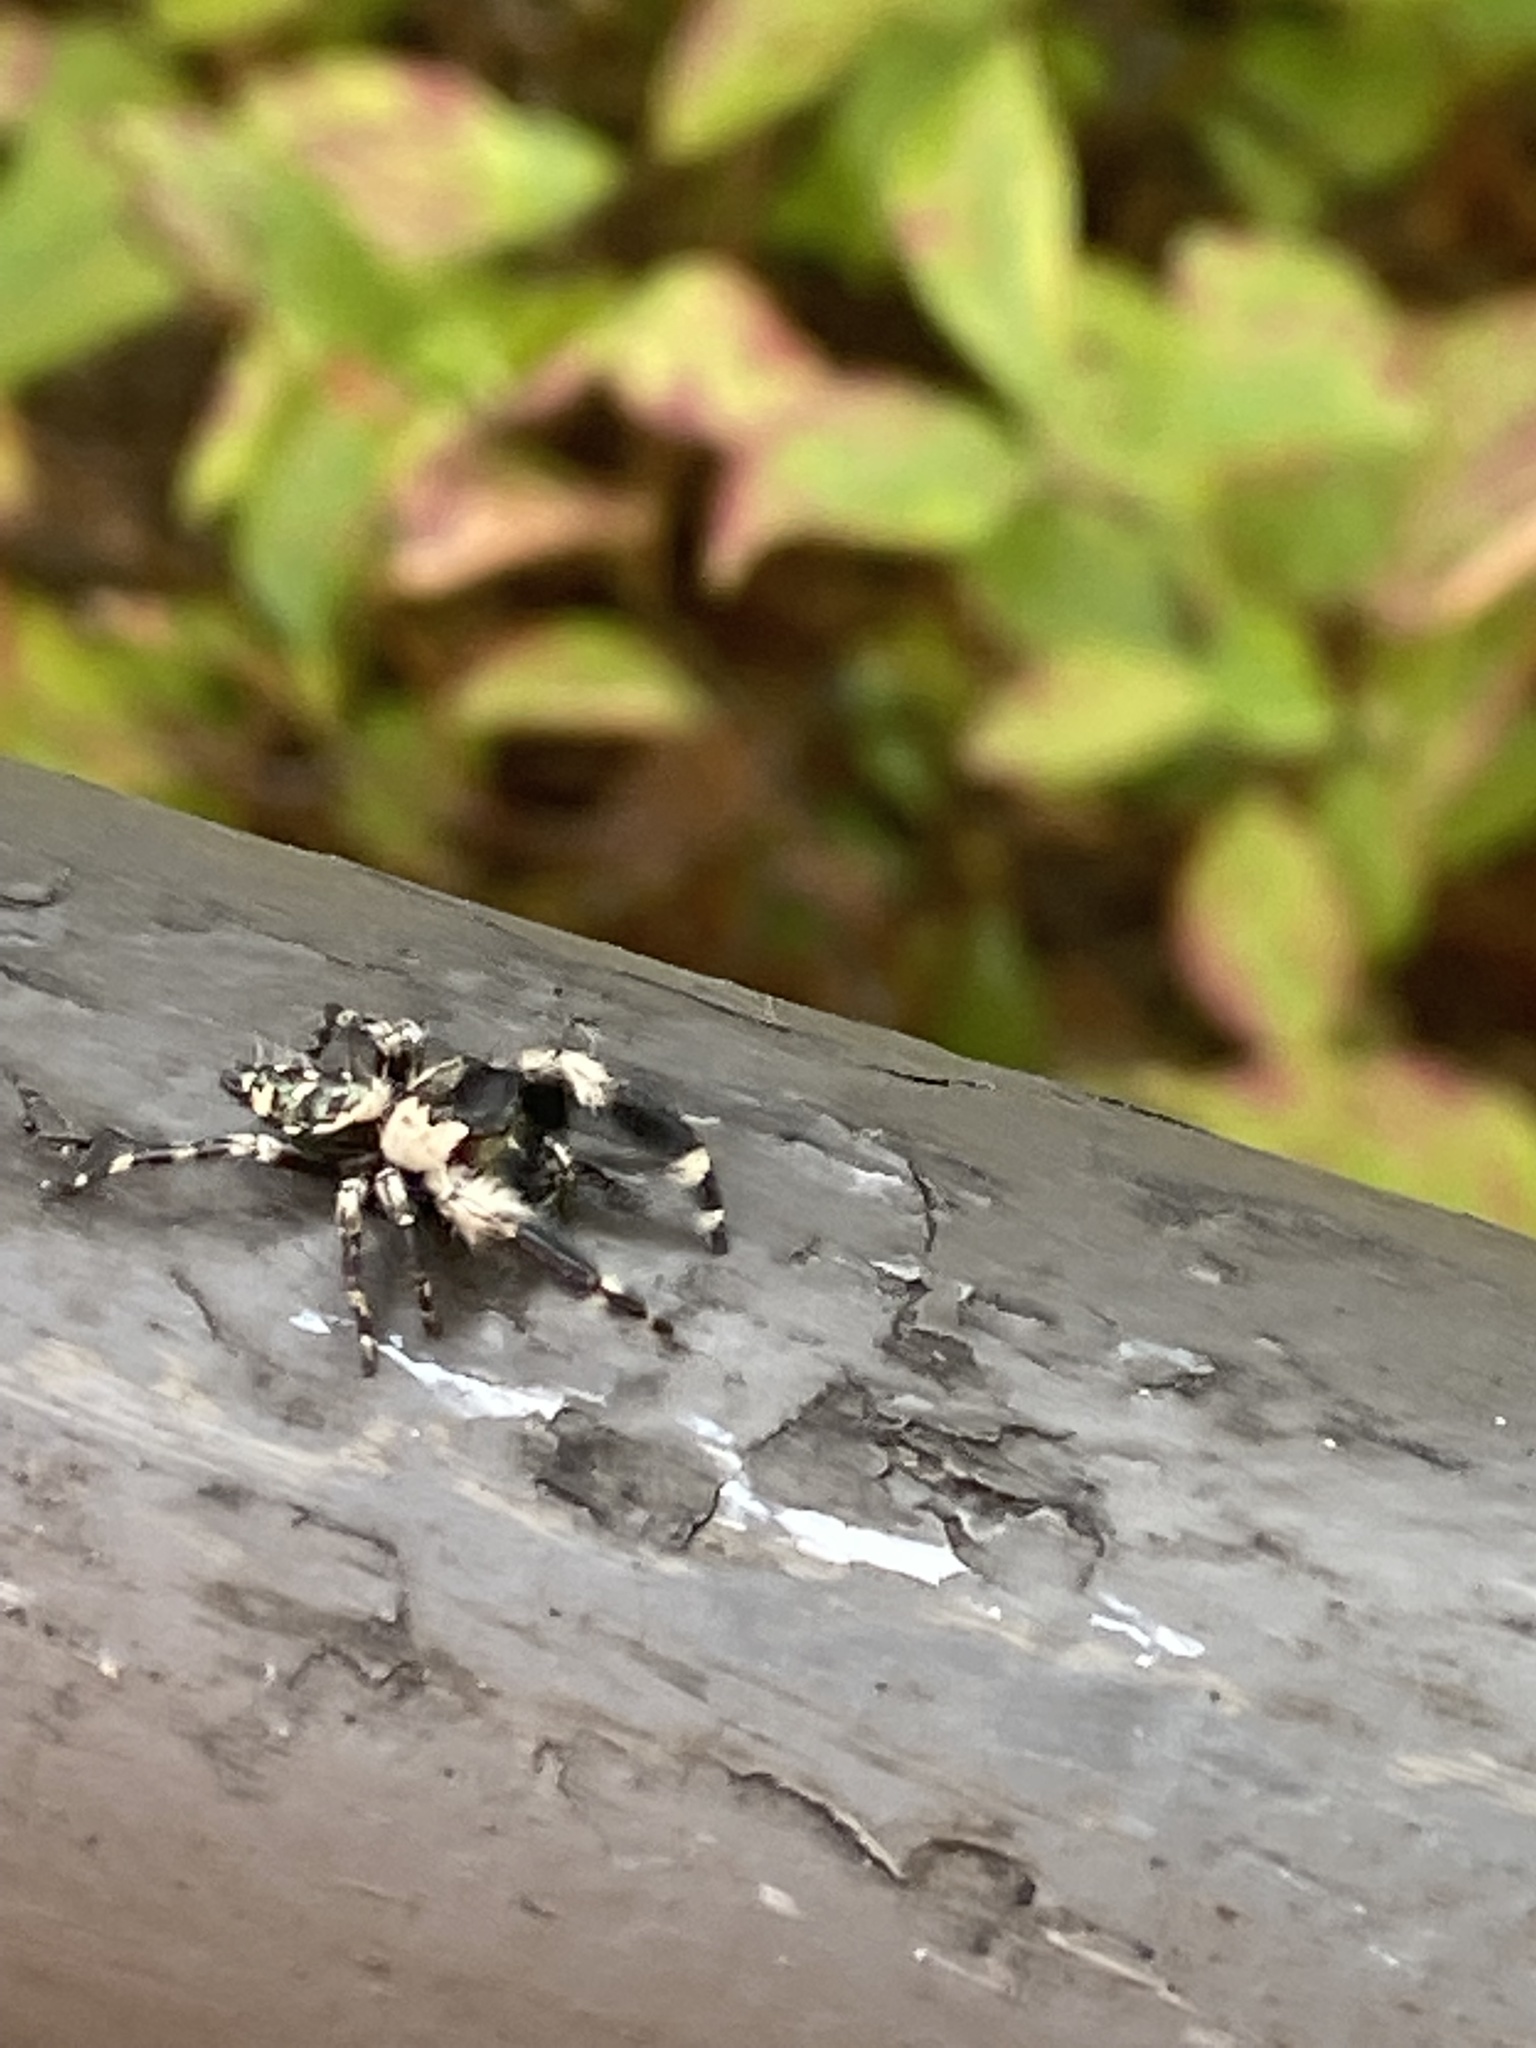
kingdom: Animalia
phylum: Arthropoda
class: Arachnida
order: Araneae
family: Salticidae
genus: Phidippus
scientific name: Phidippus otiosus
